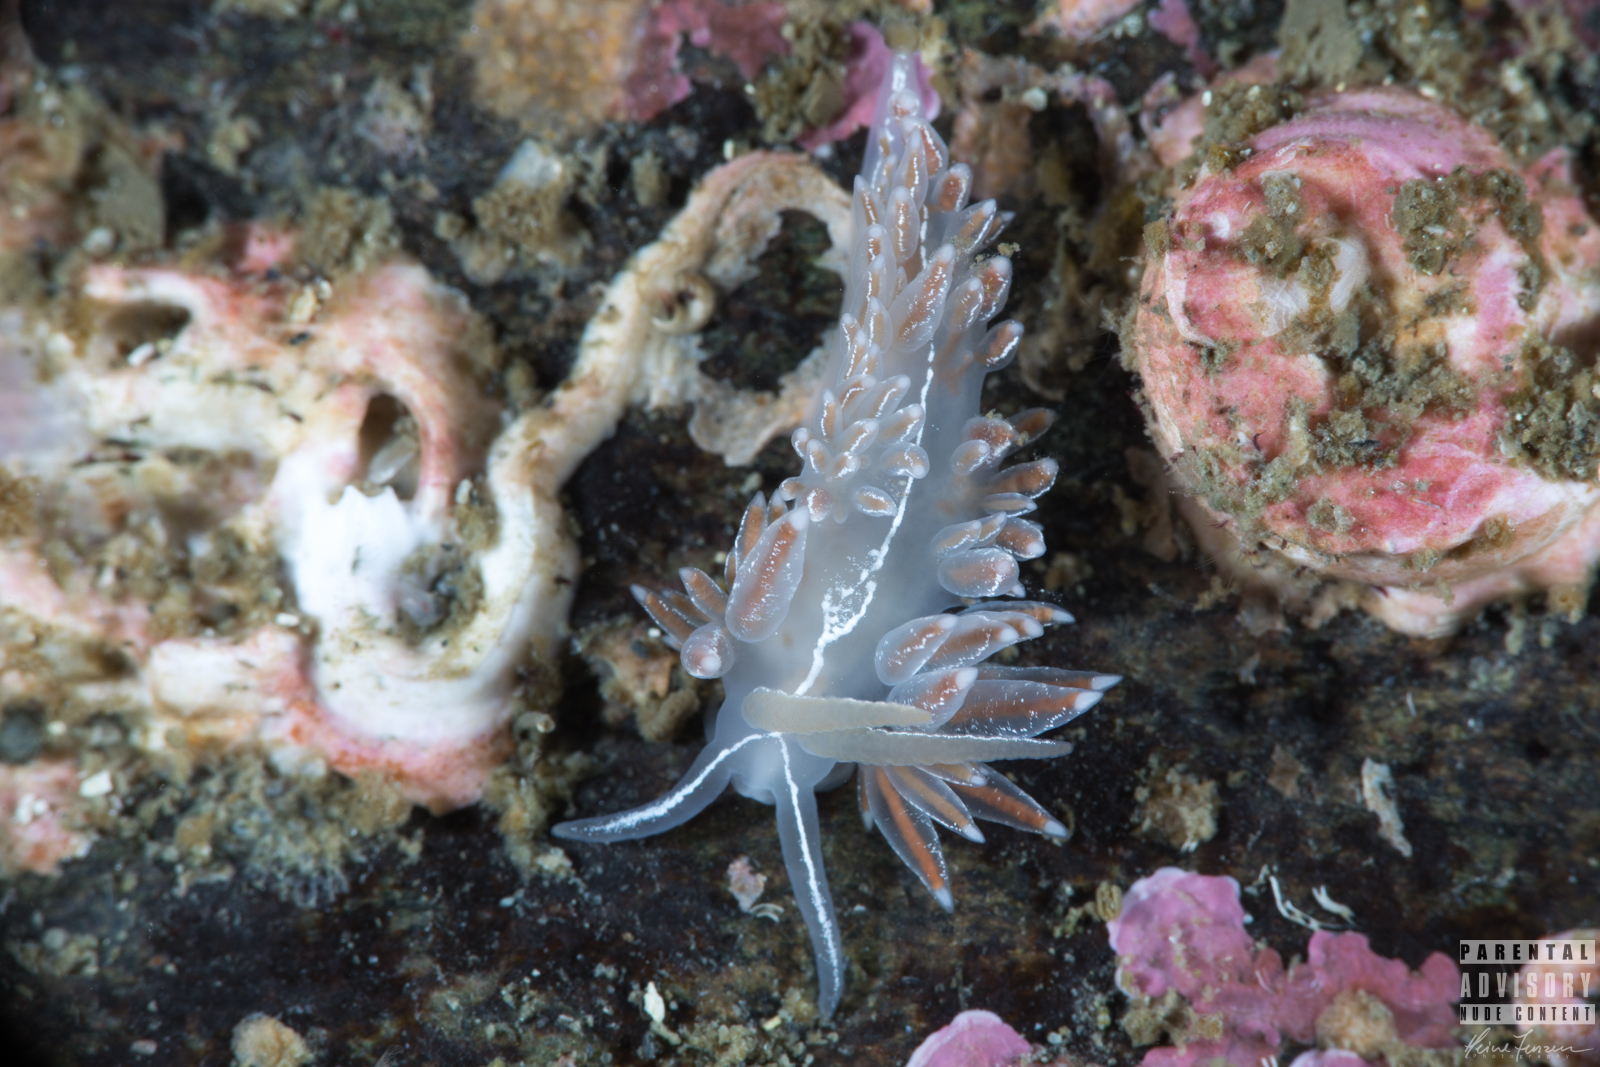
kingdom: Animalia
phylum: Mollusca
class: Gastropoda
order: Nudibranchia
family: Coryphellidae
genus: Coryphella
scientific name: Coryphella chriskaugei
